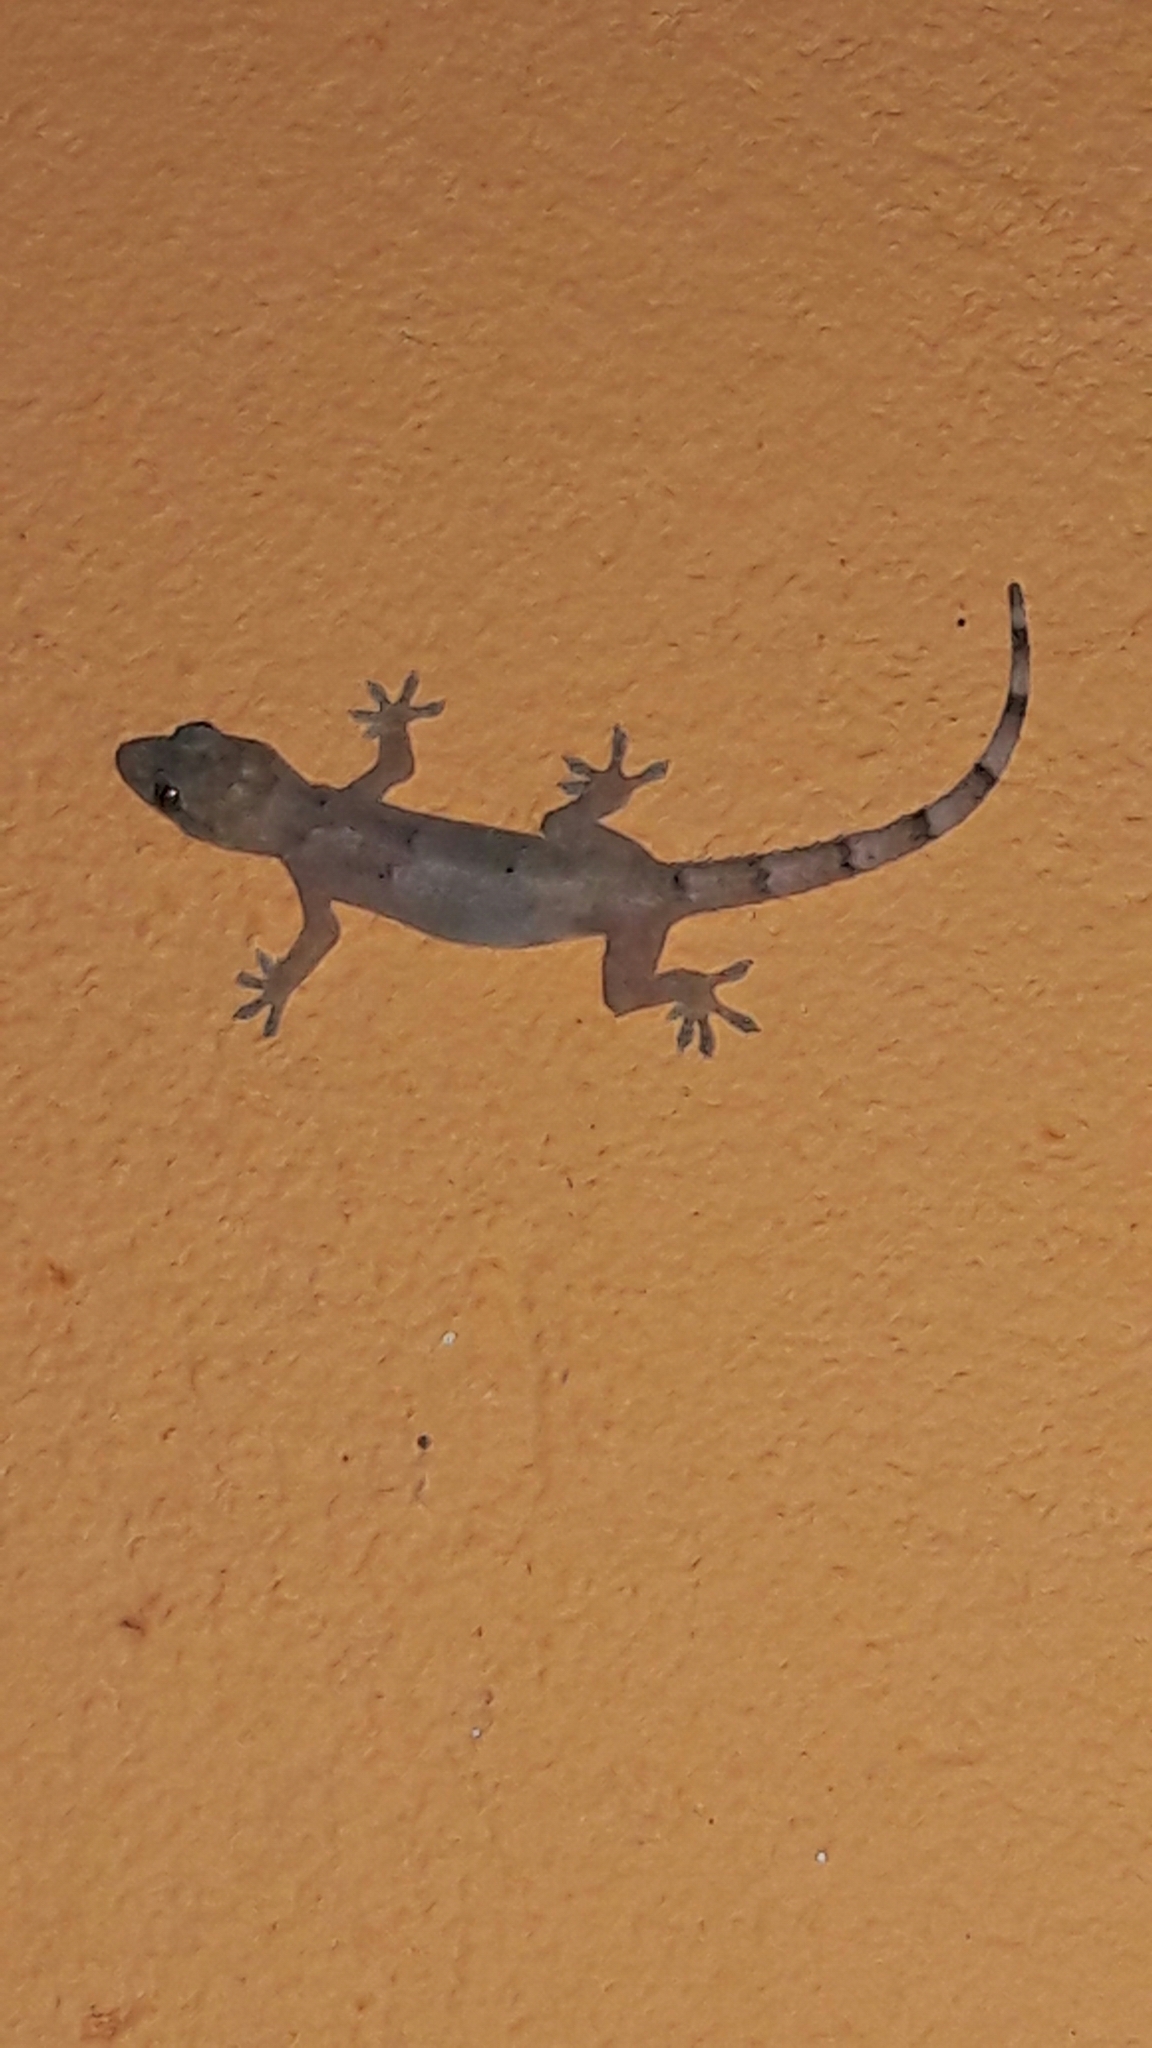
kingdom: Animalia
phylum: Chordata
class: Squamata
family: Gekkonidae
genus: Hemidactylus
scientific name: Hemidactylus mabouia
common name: House gecko
